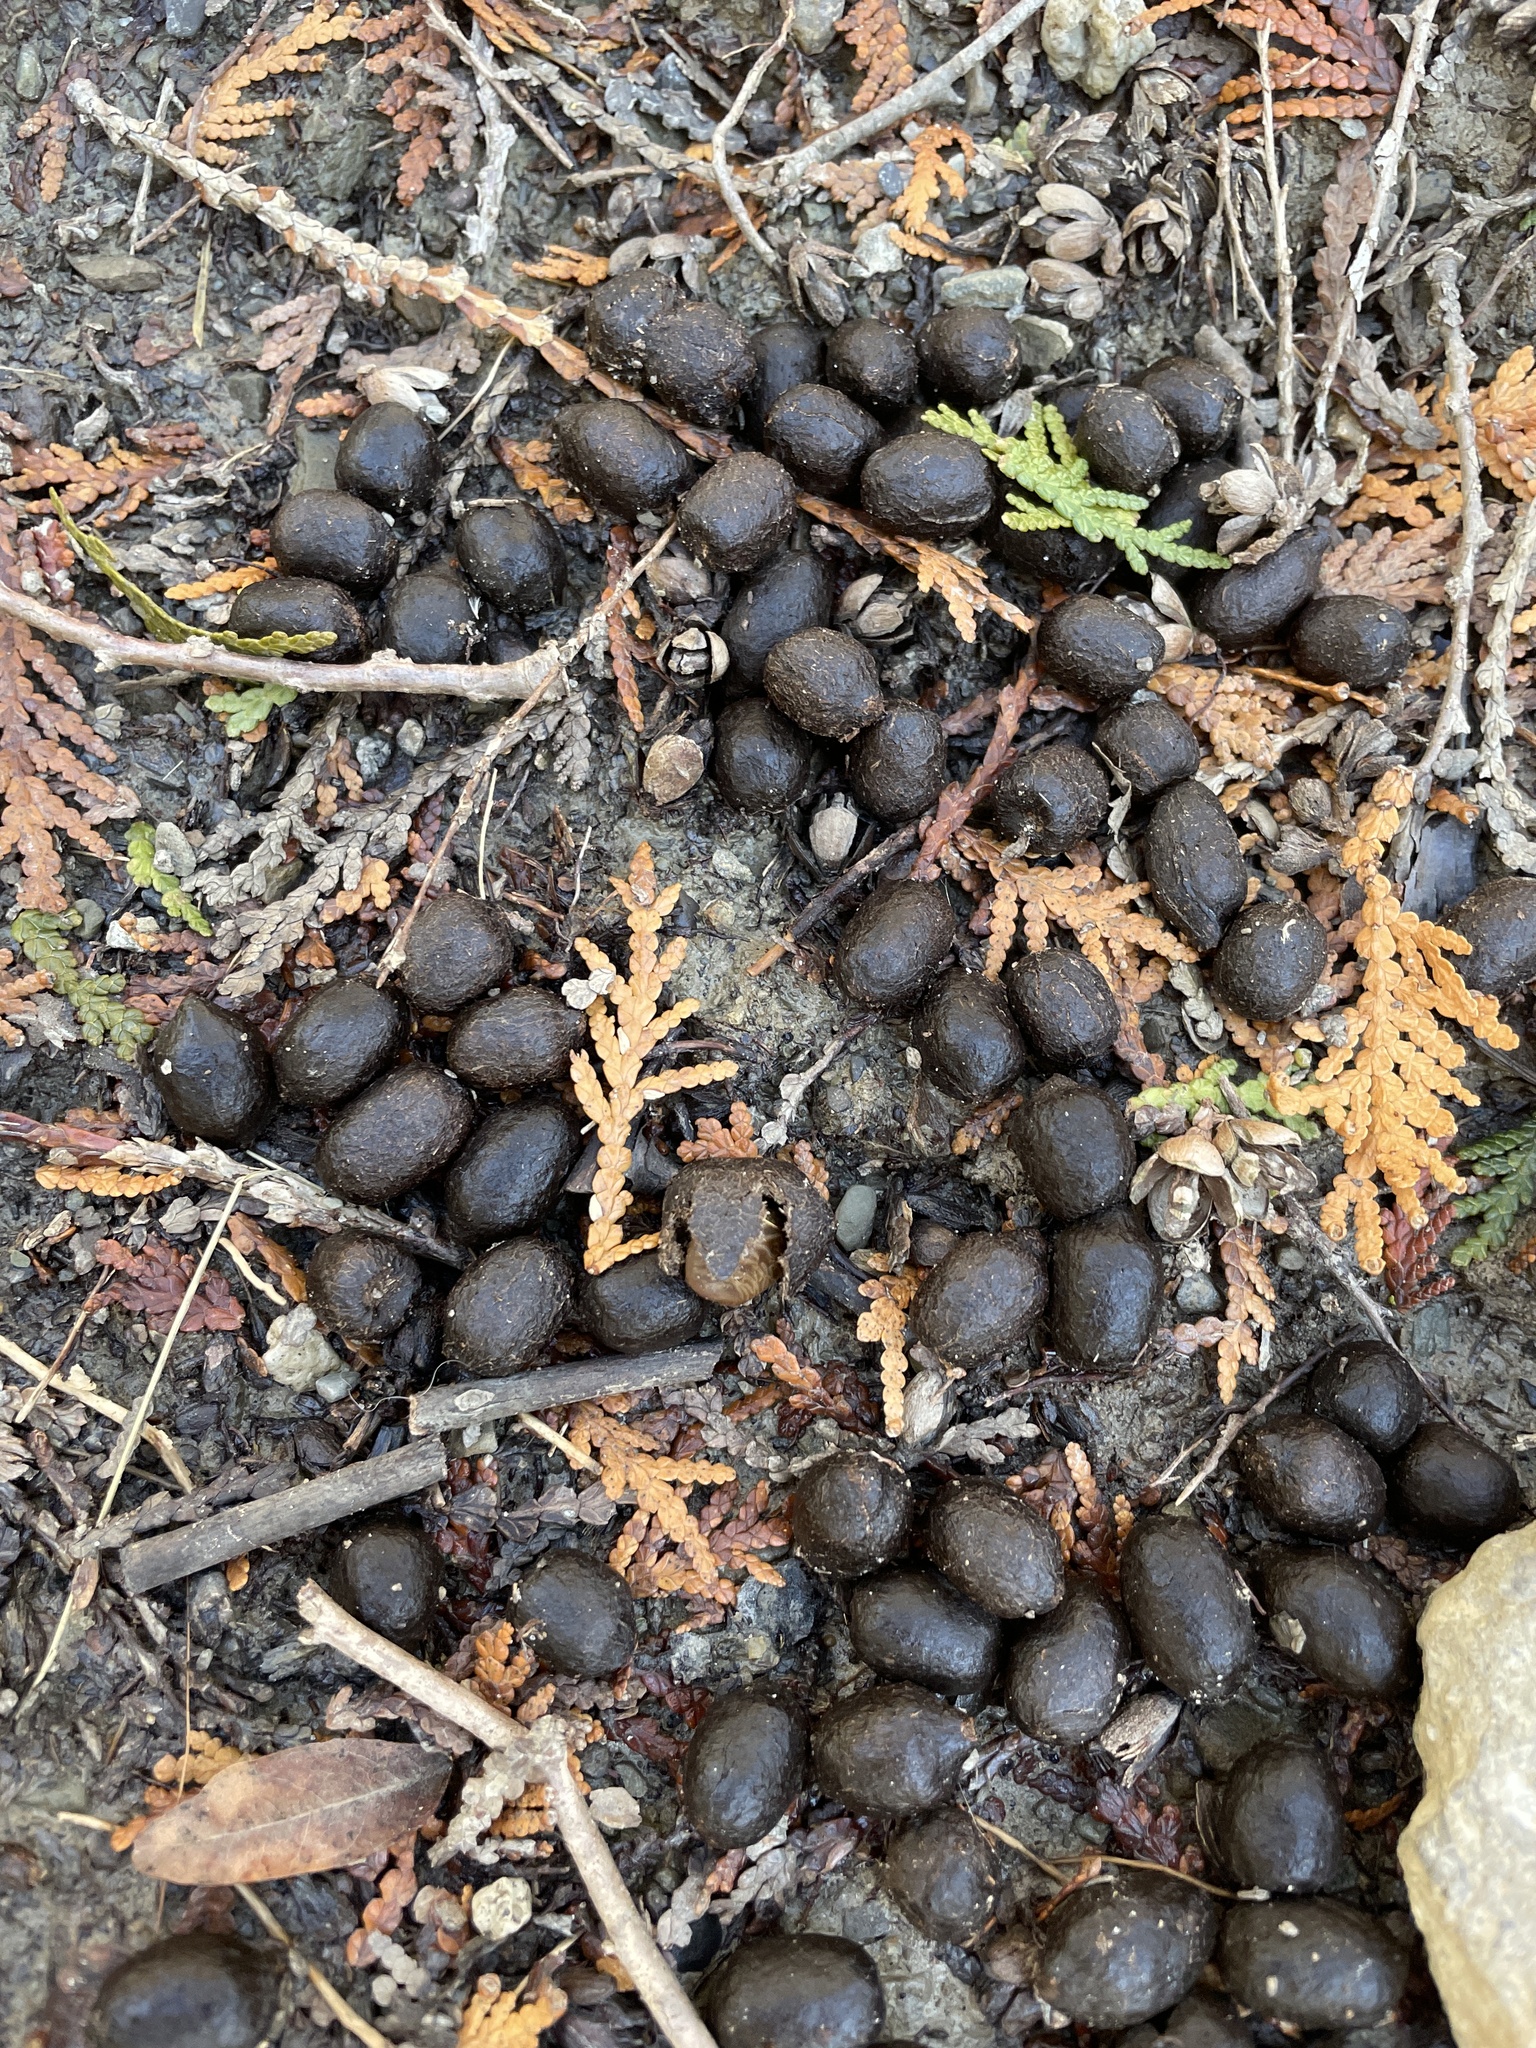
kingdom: Animalia
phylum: Chordata
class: Mammalia
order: Artiodactyla
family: Cervidae
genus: Odocoileus
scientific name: Odocoileus virginianus
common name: White-tailed deer
